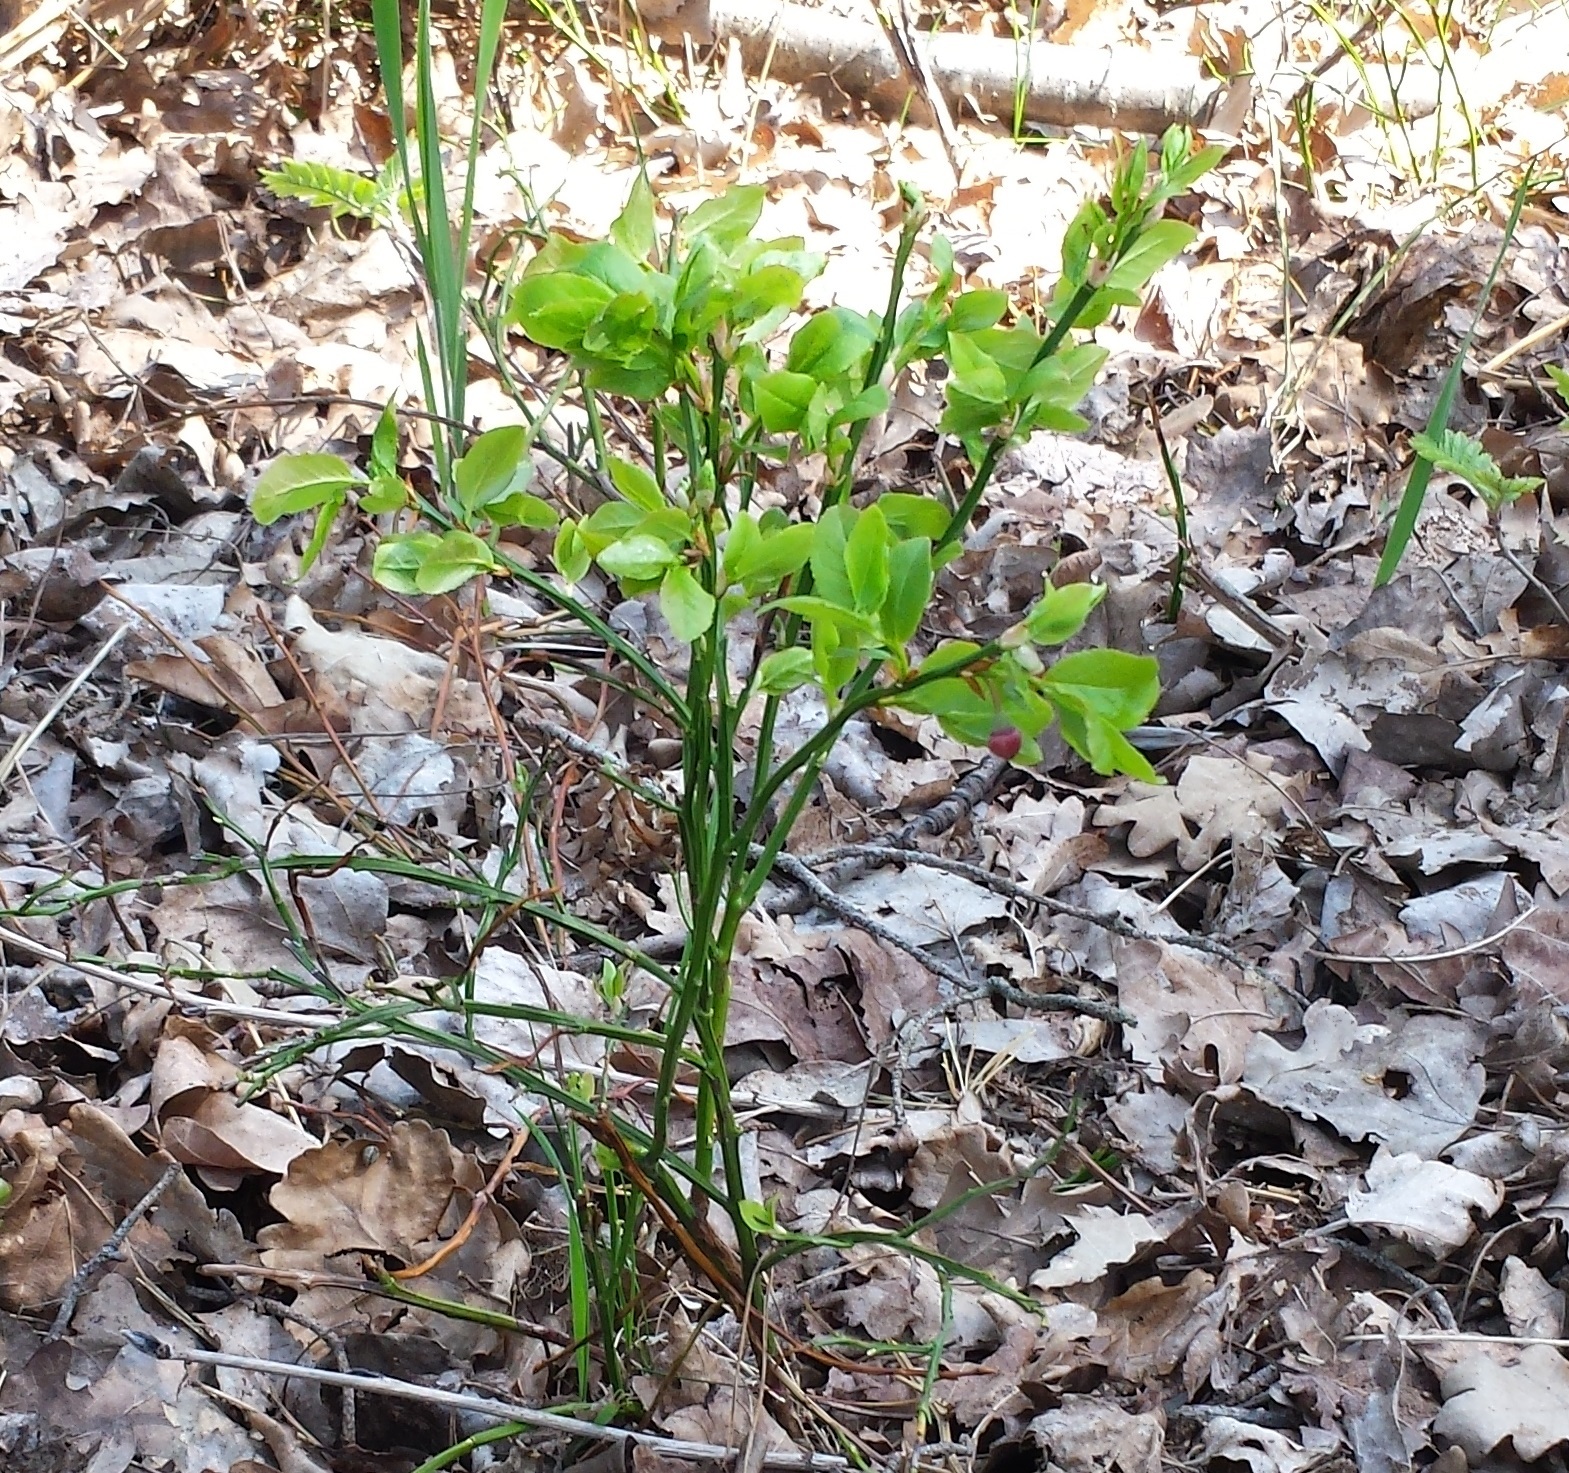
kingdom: Plantae
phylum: Tracheophyta
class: Magnoliopsida
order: Ericales
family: Ericaceae
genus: Vaccinium
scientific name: Vaccinium myrtillus
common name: Bilberry
